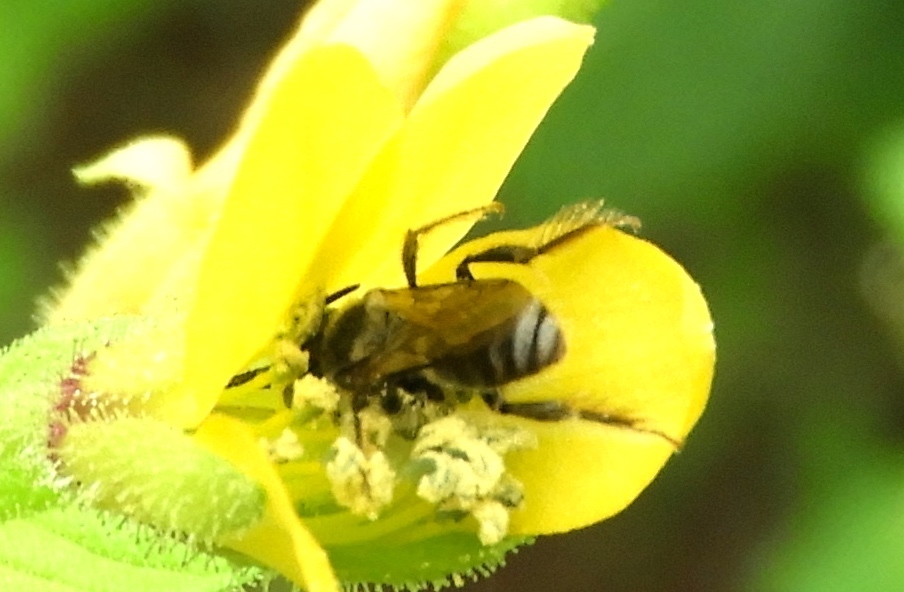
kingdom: Animalia
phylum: Arthropoda
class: Insecta
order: Hymenoptera
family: Apidae
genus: Exomalopsis
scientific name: Exomalopsis
